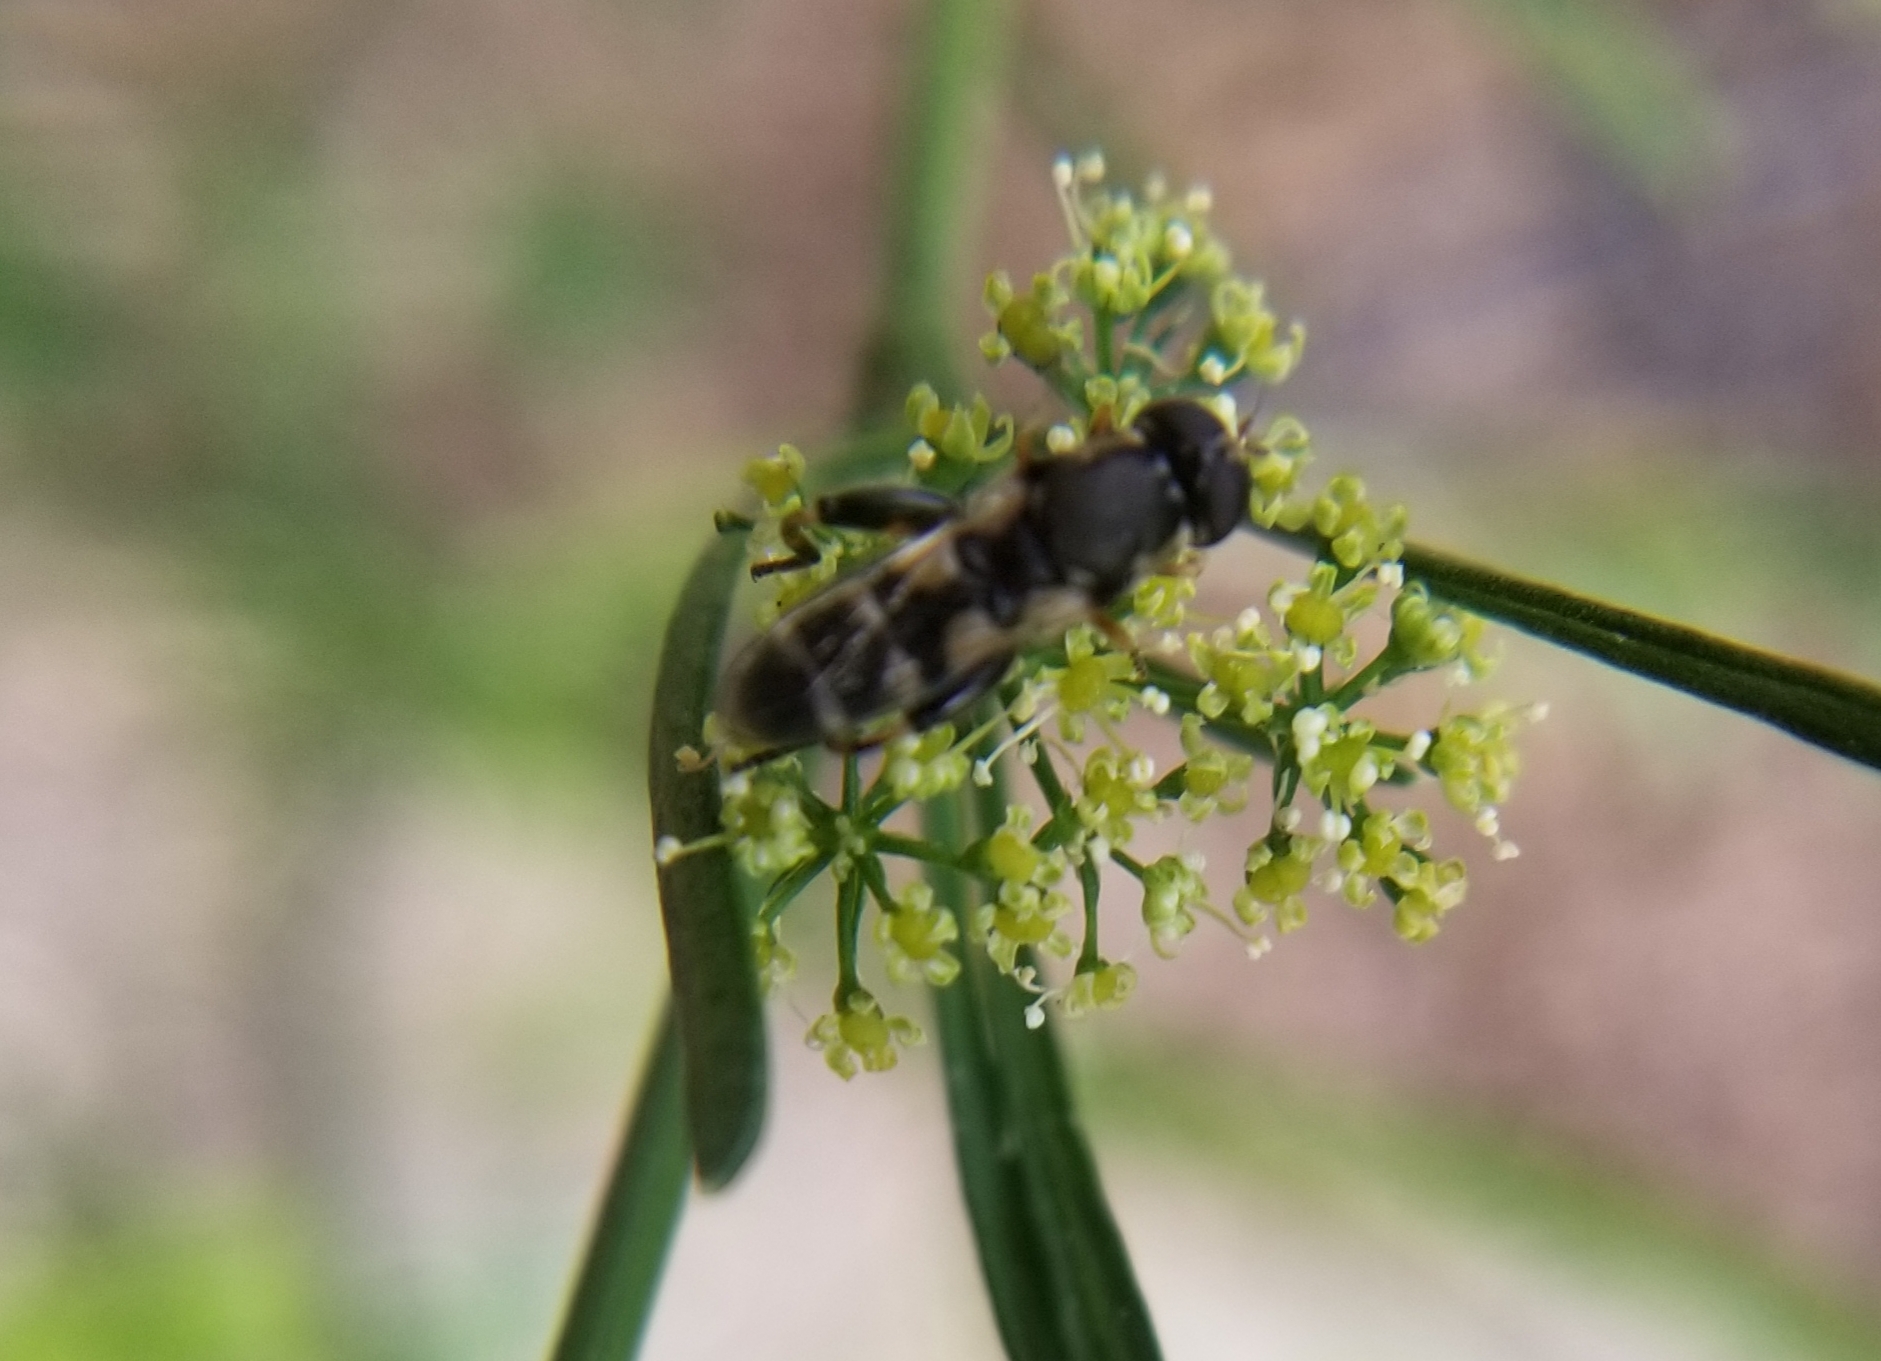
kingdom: Animalia
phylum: Arthropoda
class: Insecta
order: Diptera
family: Syrphidae
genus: Syritta
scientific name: Syritta pipiens
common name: Hover fly
